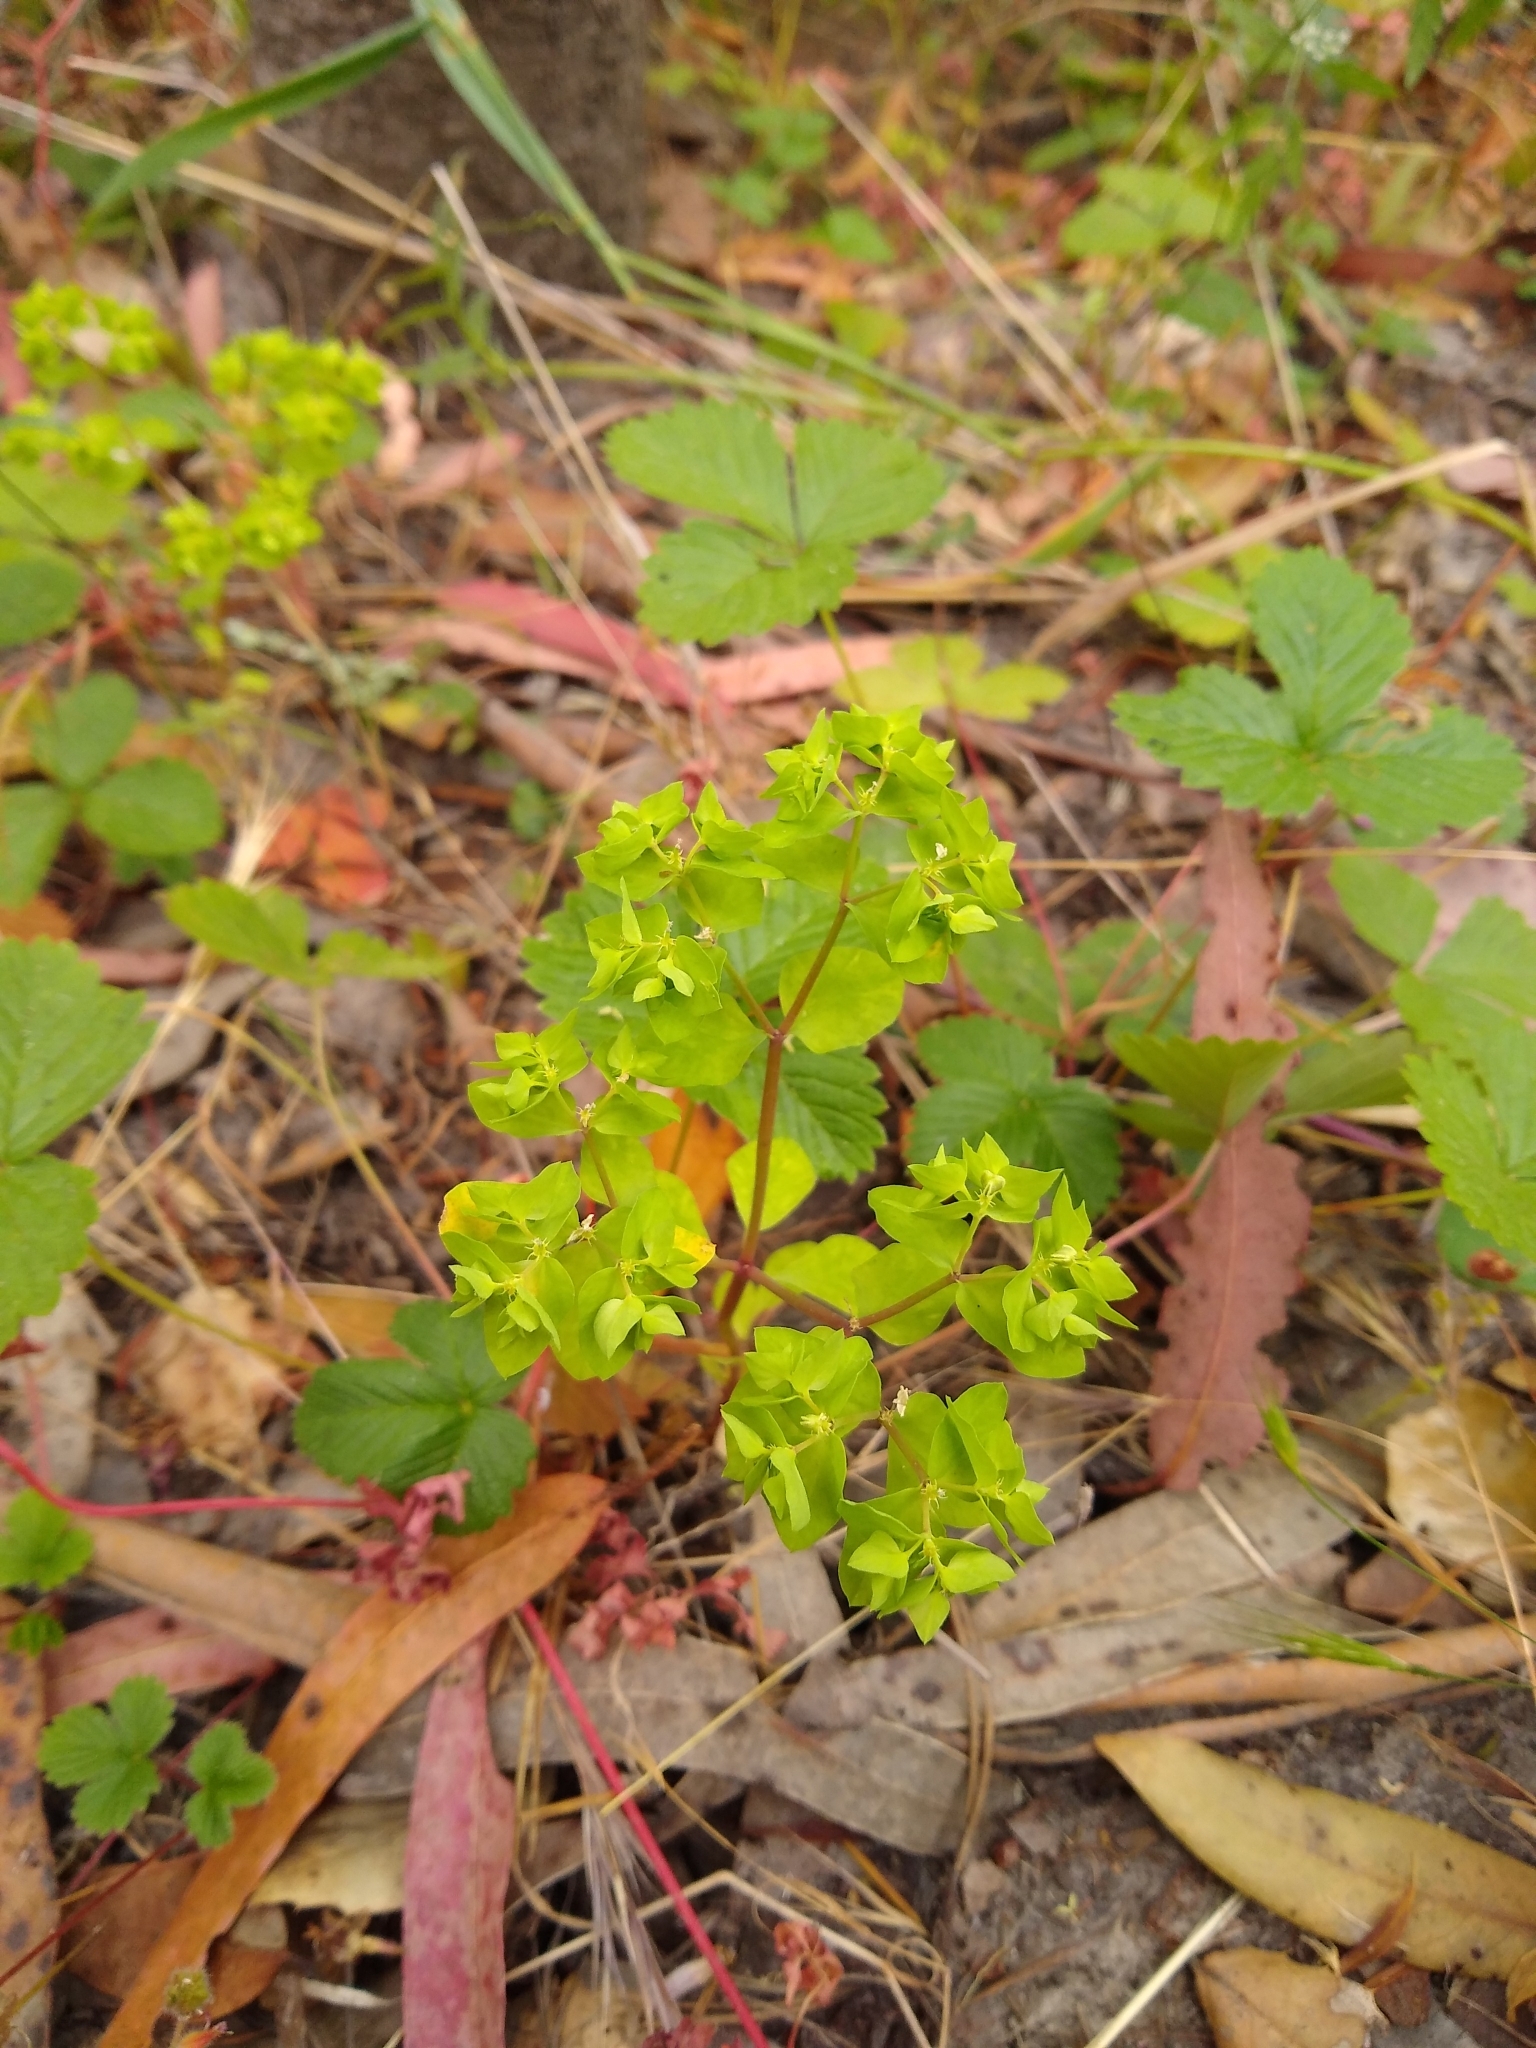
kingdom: Plantae
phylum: Tracheophyta
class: Magnoliopsida
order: Malpighiales
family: Euphorbiaceae
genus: Euphorbia
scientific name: Euphorbia peplus
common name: Petty spurge
